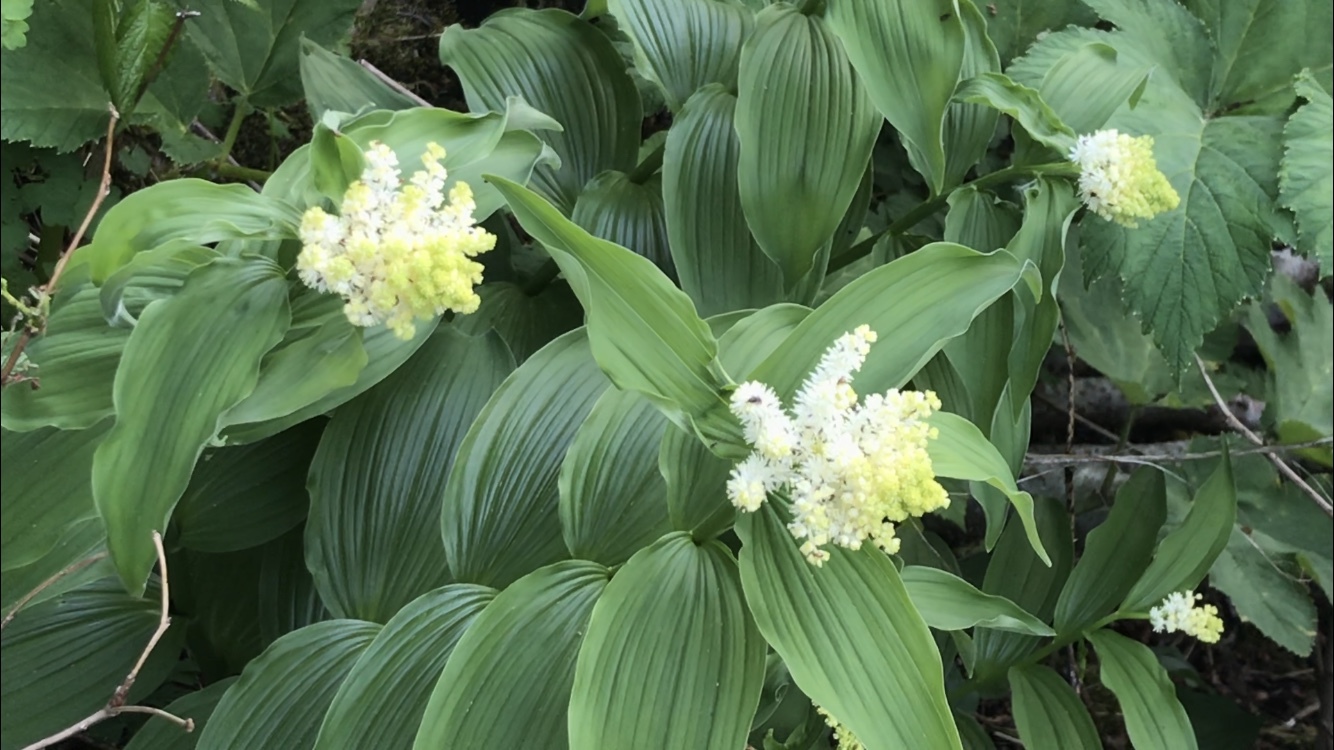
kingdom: Plantae
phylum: Tracheophyta
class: Liliopsida
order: Asparagales
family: Asparagaceae
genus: Maianthemum
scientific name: Maianthemum racemosum
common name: False spikenard
